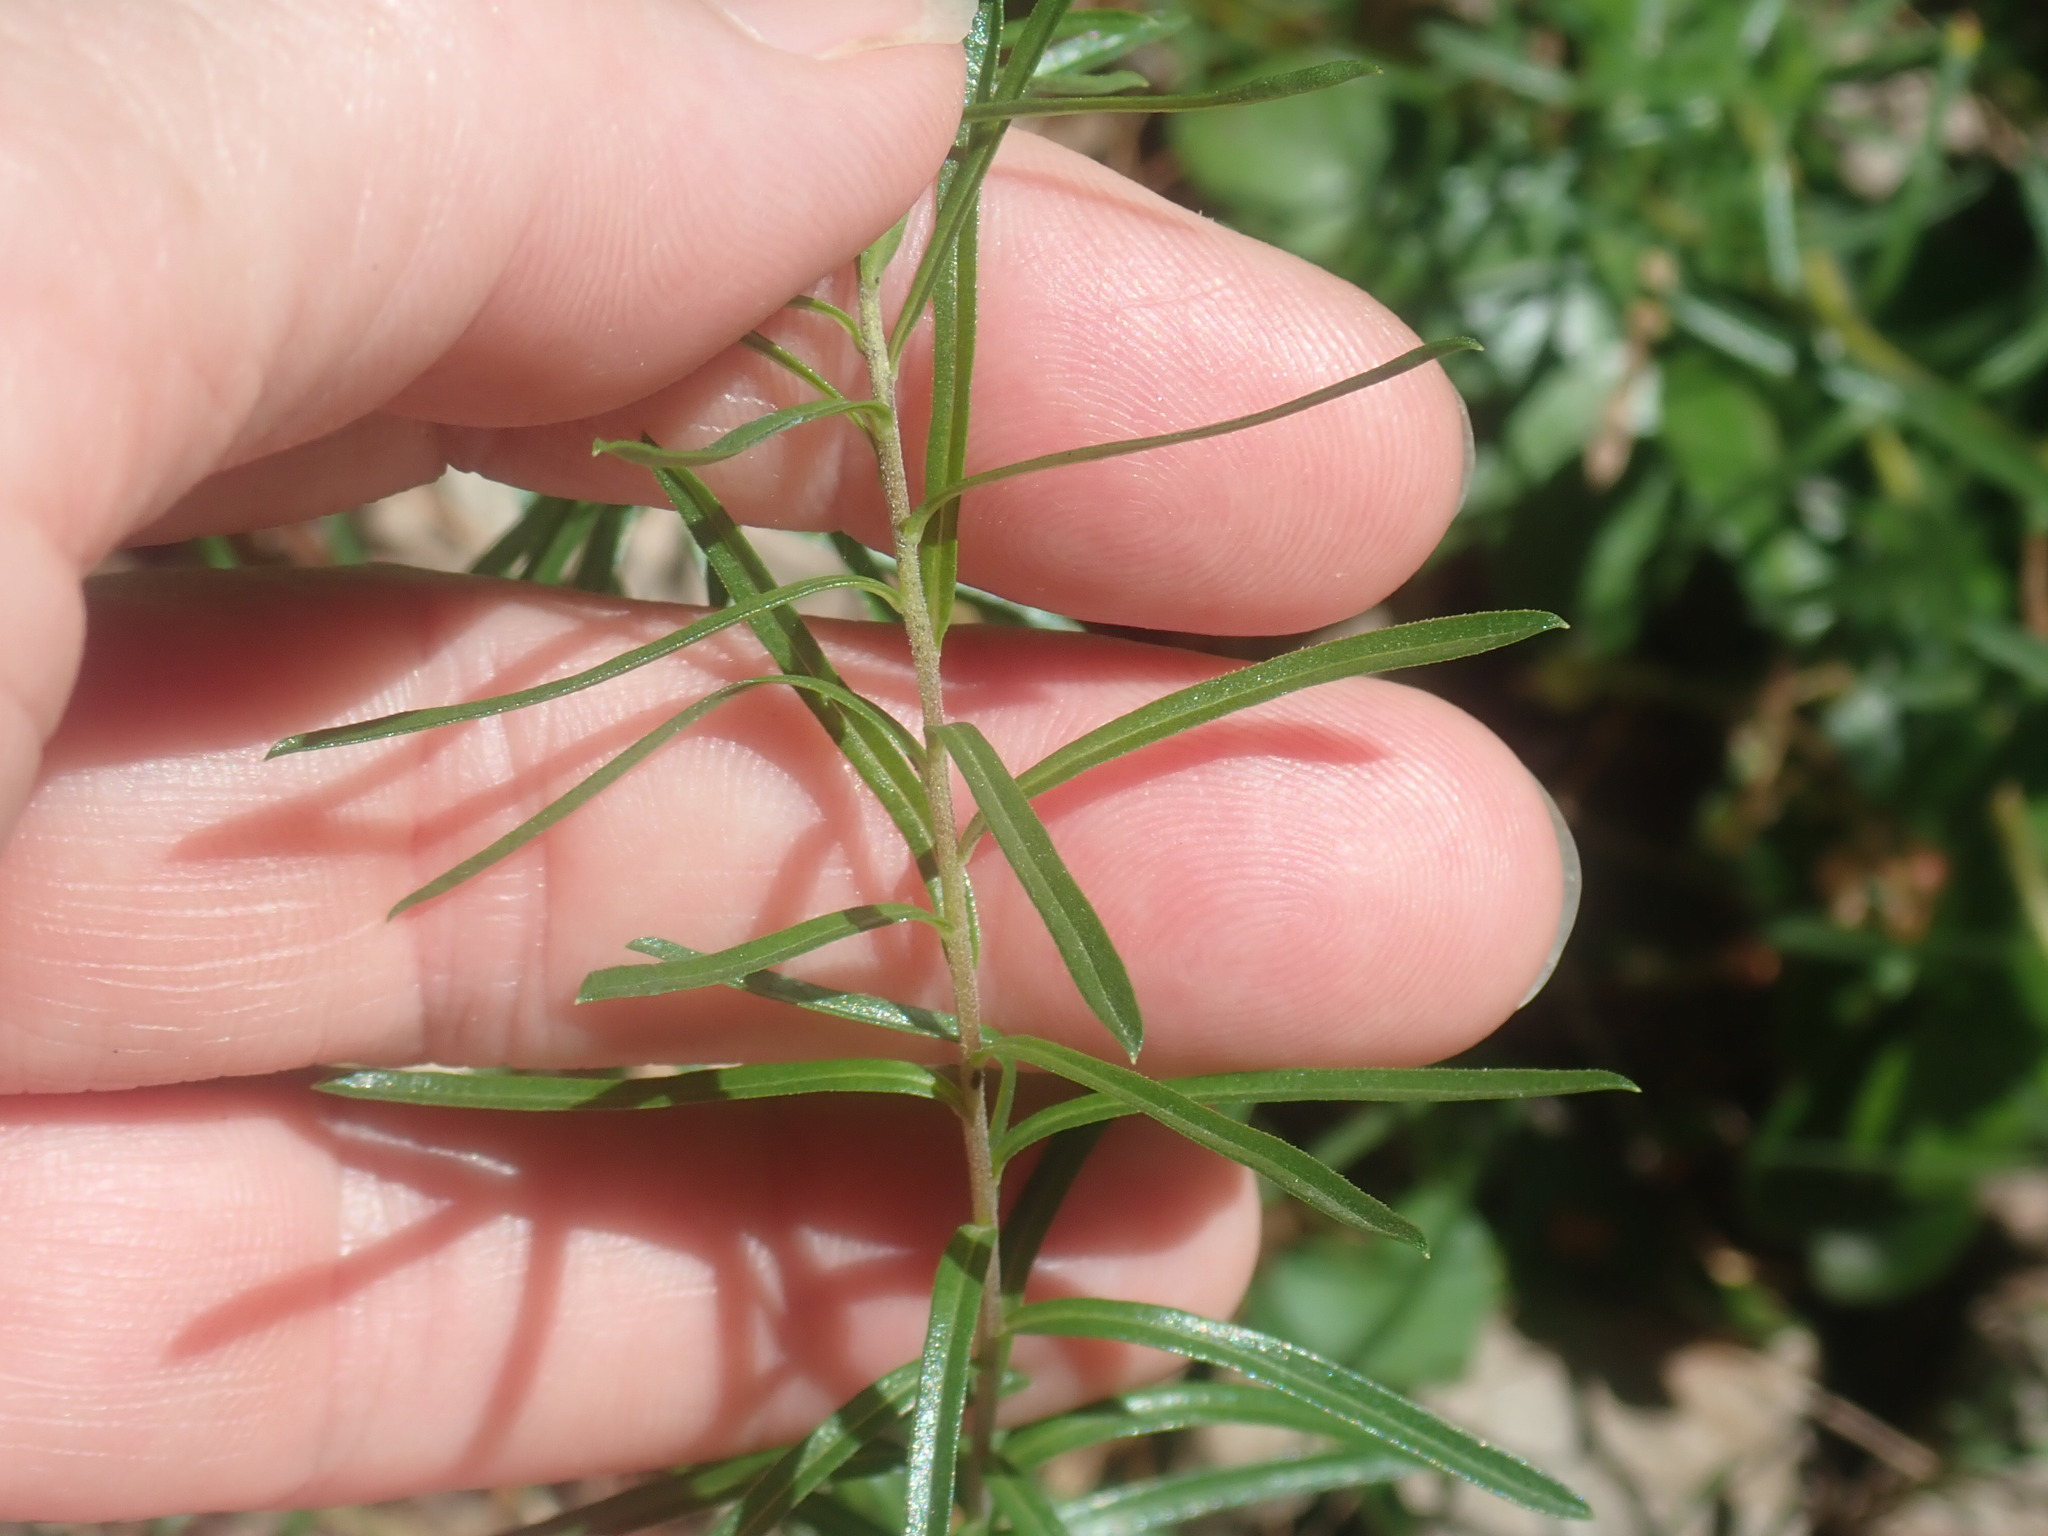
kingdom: Plantae
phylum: Tracheophyta
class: Magnoliopsida
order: Asterales
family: Asteraceae
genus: Ionactis
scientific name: Ionactis linariifolia
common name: Flax-leaf aster
